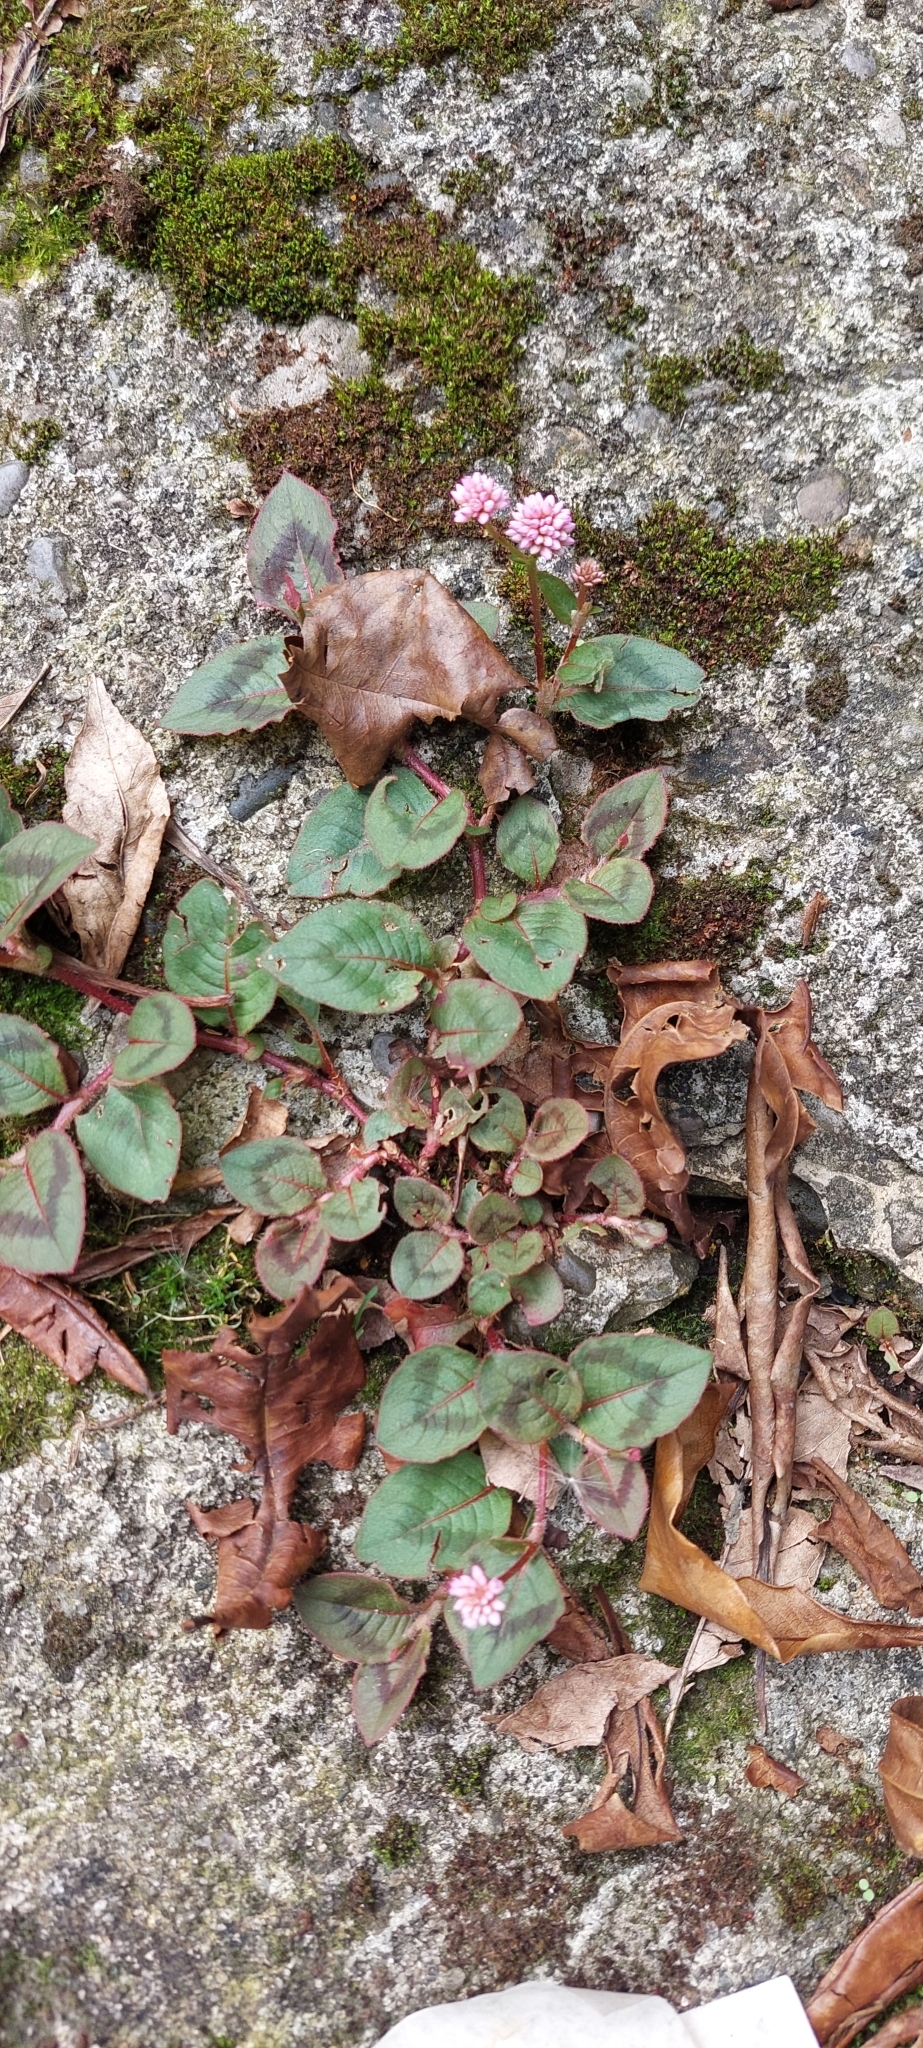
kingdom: Plantae
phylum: Tracheophyta
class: Magnoliopsida
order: Caryophyllales
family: Polygonaceae
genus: Persicaria
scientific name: Persicaria capitata
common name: Pinkhead smartweed
